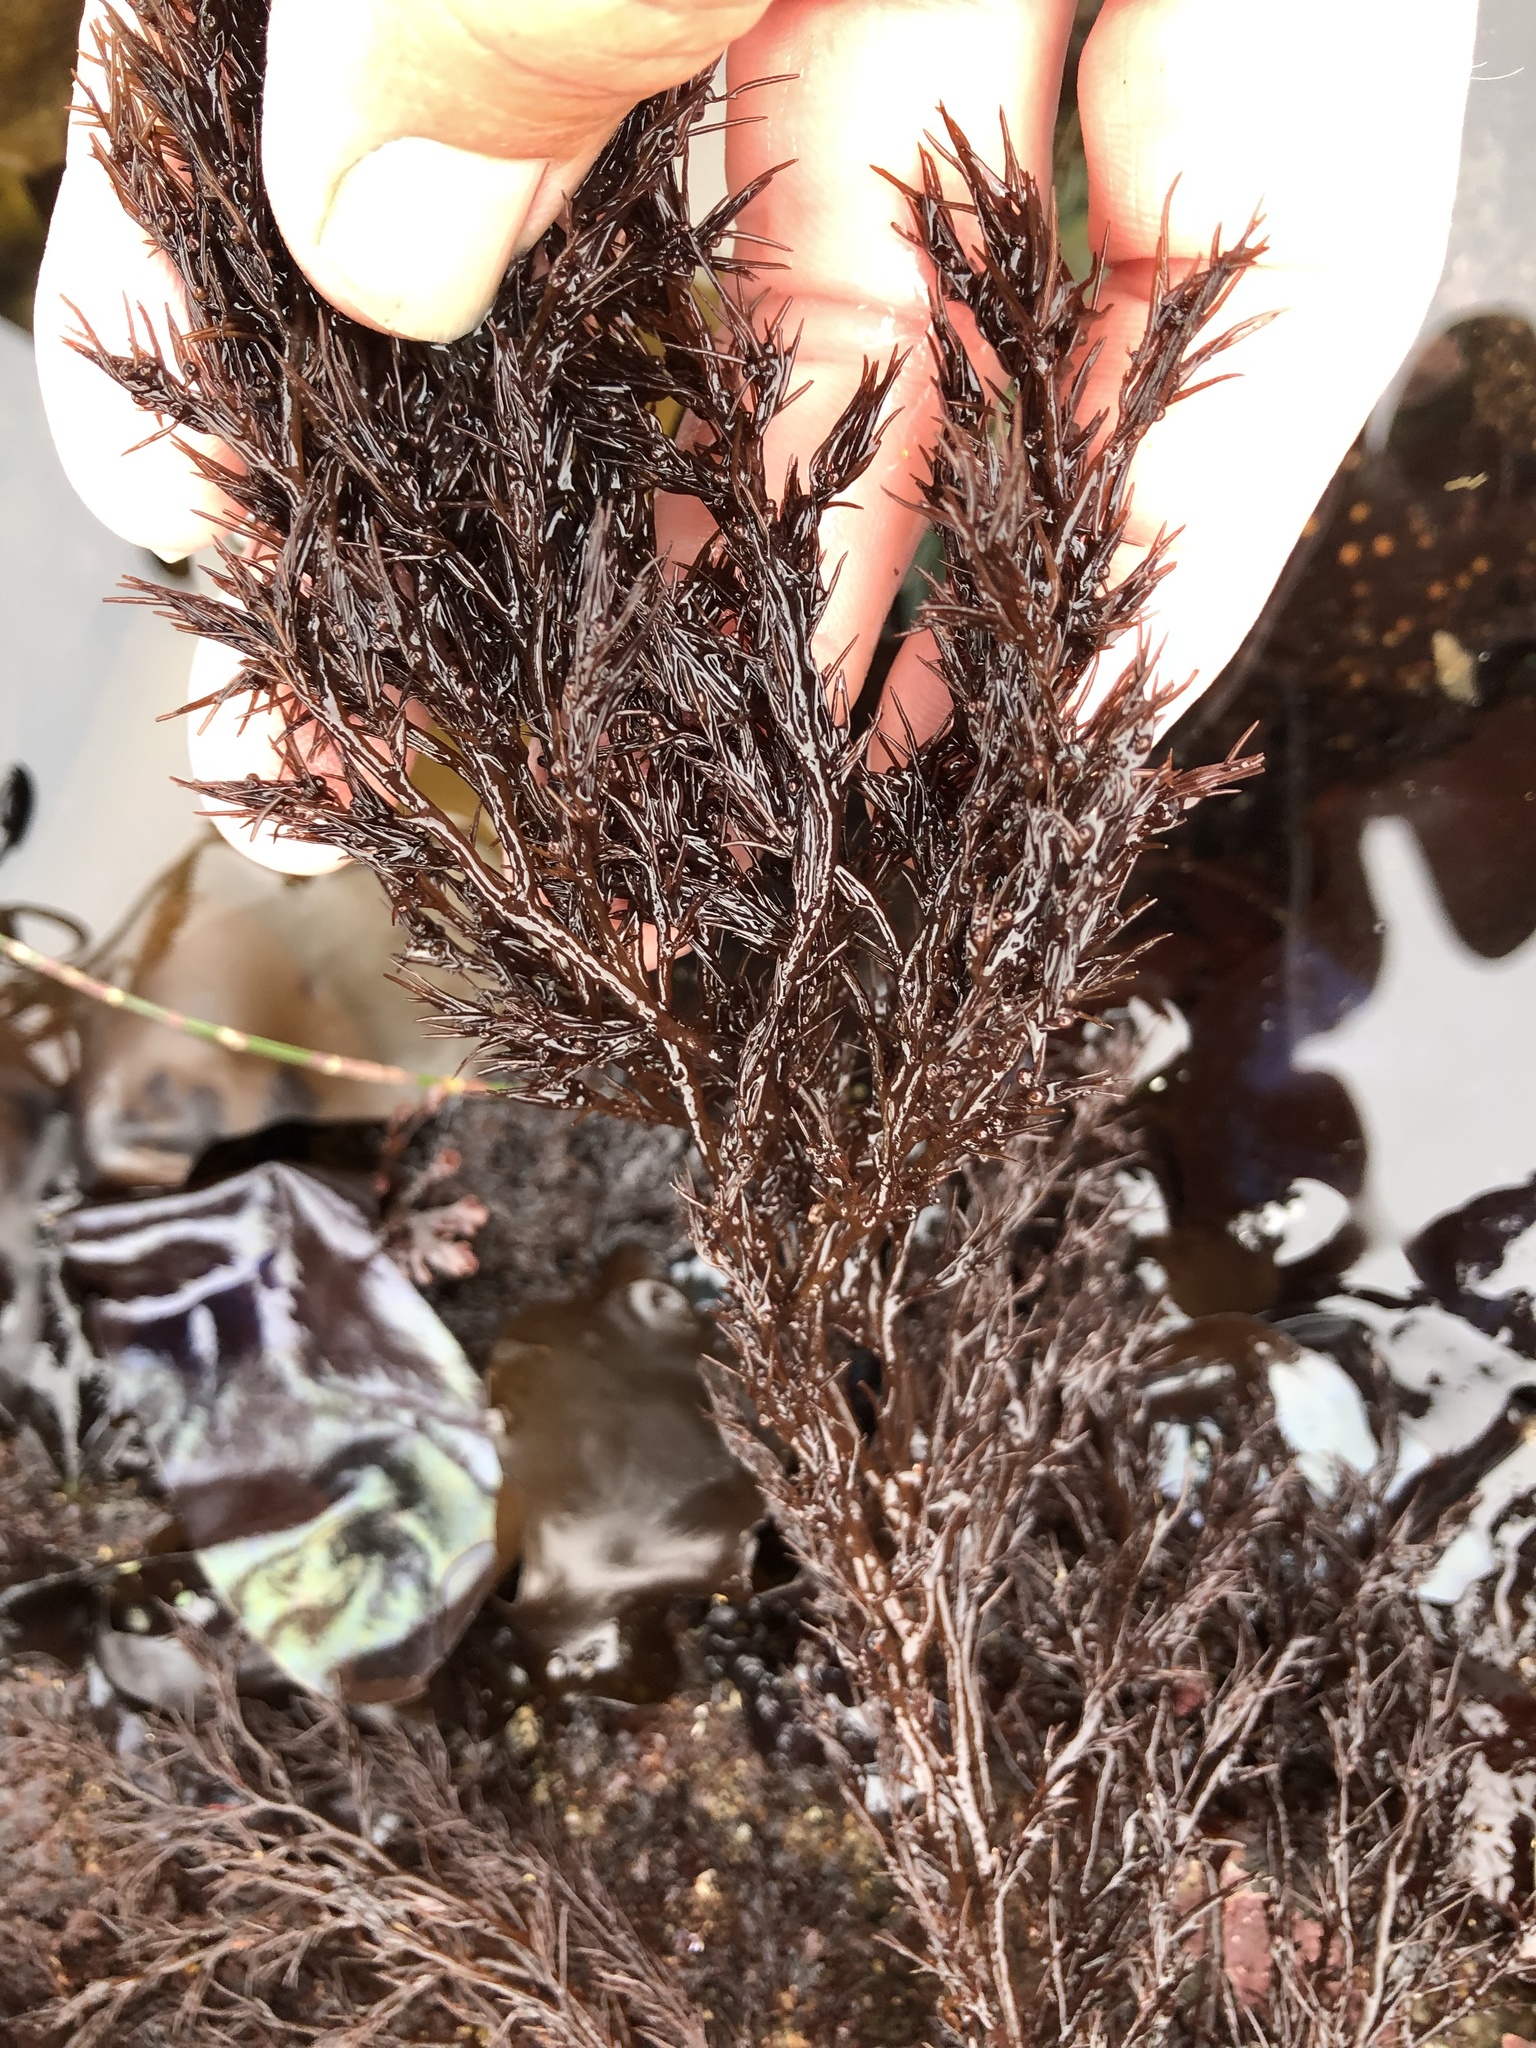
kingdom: Plantae
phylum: Rhodophyta
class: Florideophyceae
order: Ceramiales
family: Rhodomelaceae
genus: Odonthalia
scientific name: Odonthalia floccosa
